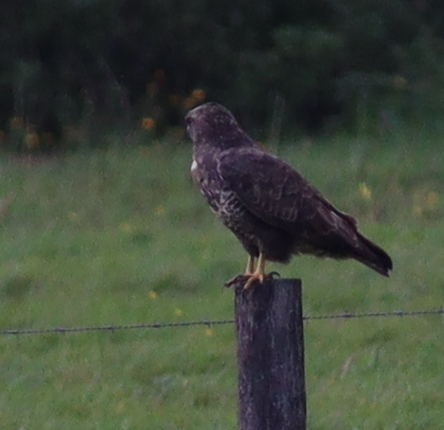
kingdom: Animalia
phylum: Chordata
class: Aves
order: Accipitriformes
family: Accipitridae
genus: Buteo
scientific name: Buteo buteo
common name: Common buzzard
